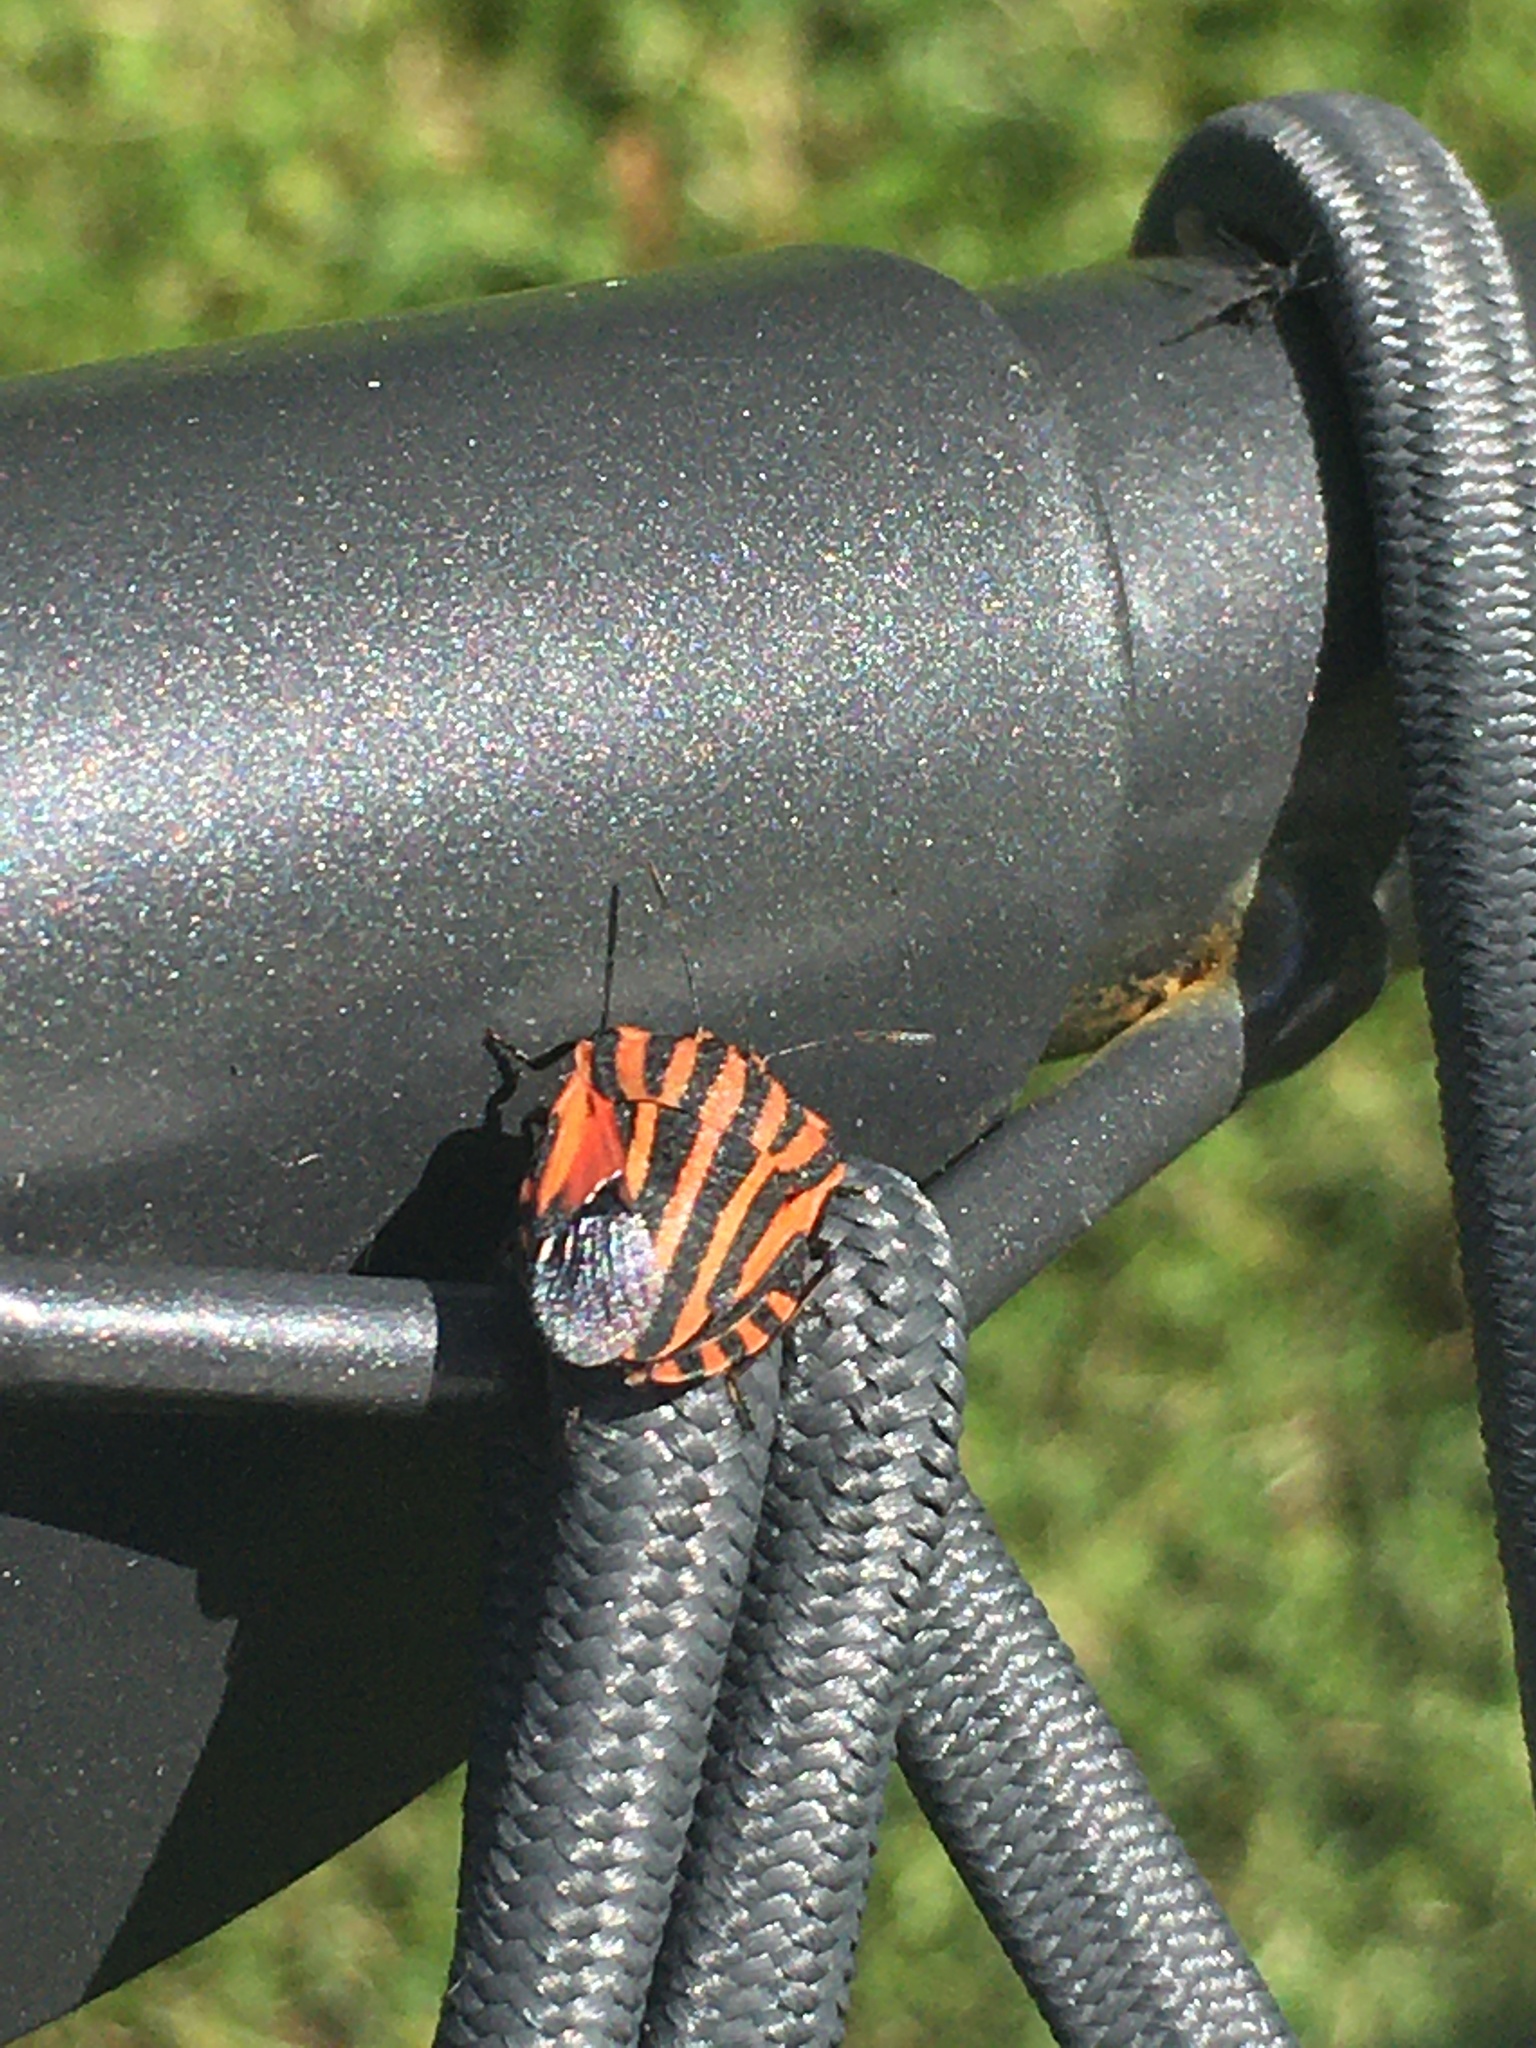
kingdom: Animalia
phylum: Arthropoda
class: Insecta
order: Hemiptera
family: Pentatomidae
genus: Graphosoma
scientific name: Graphosoma italicum
